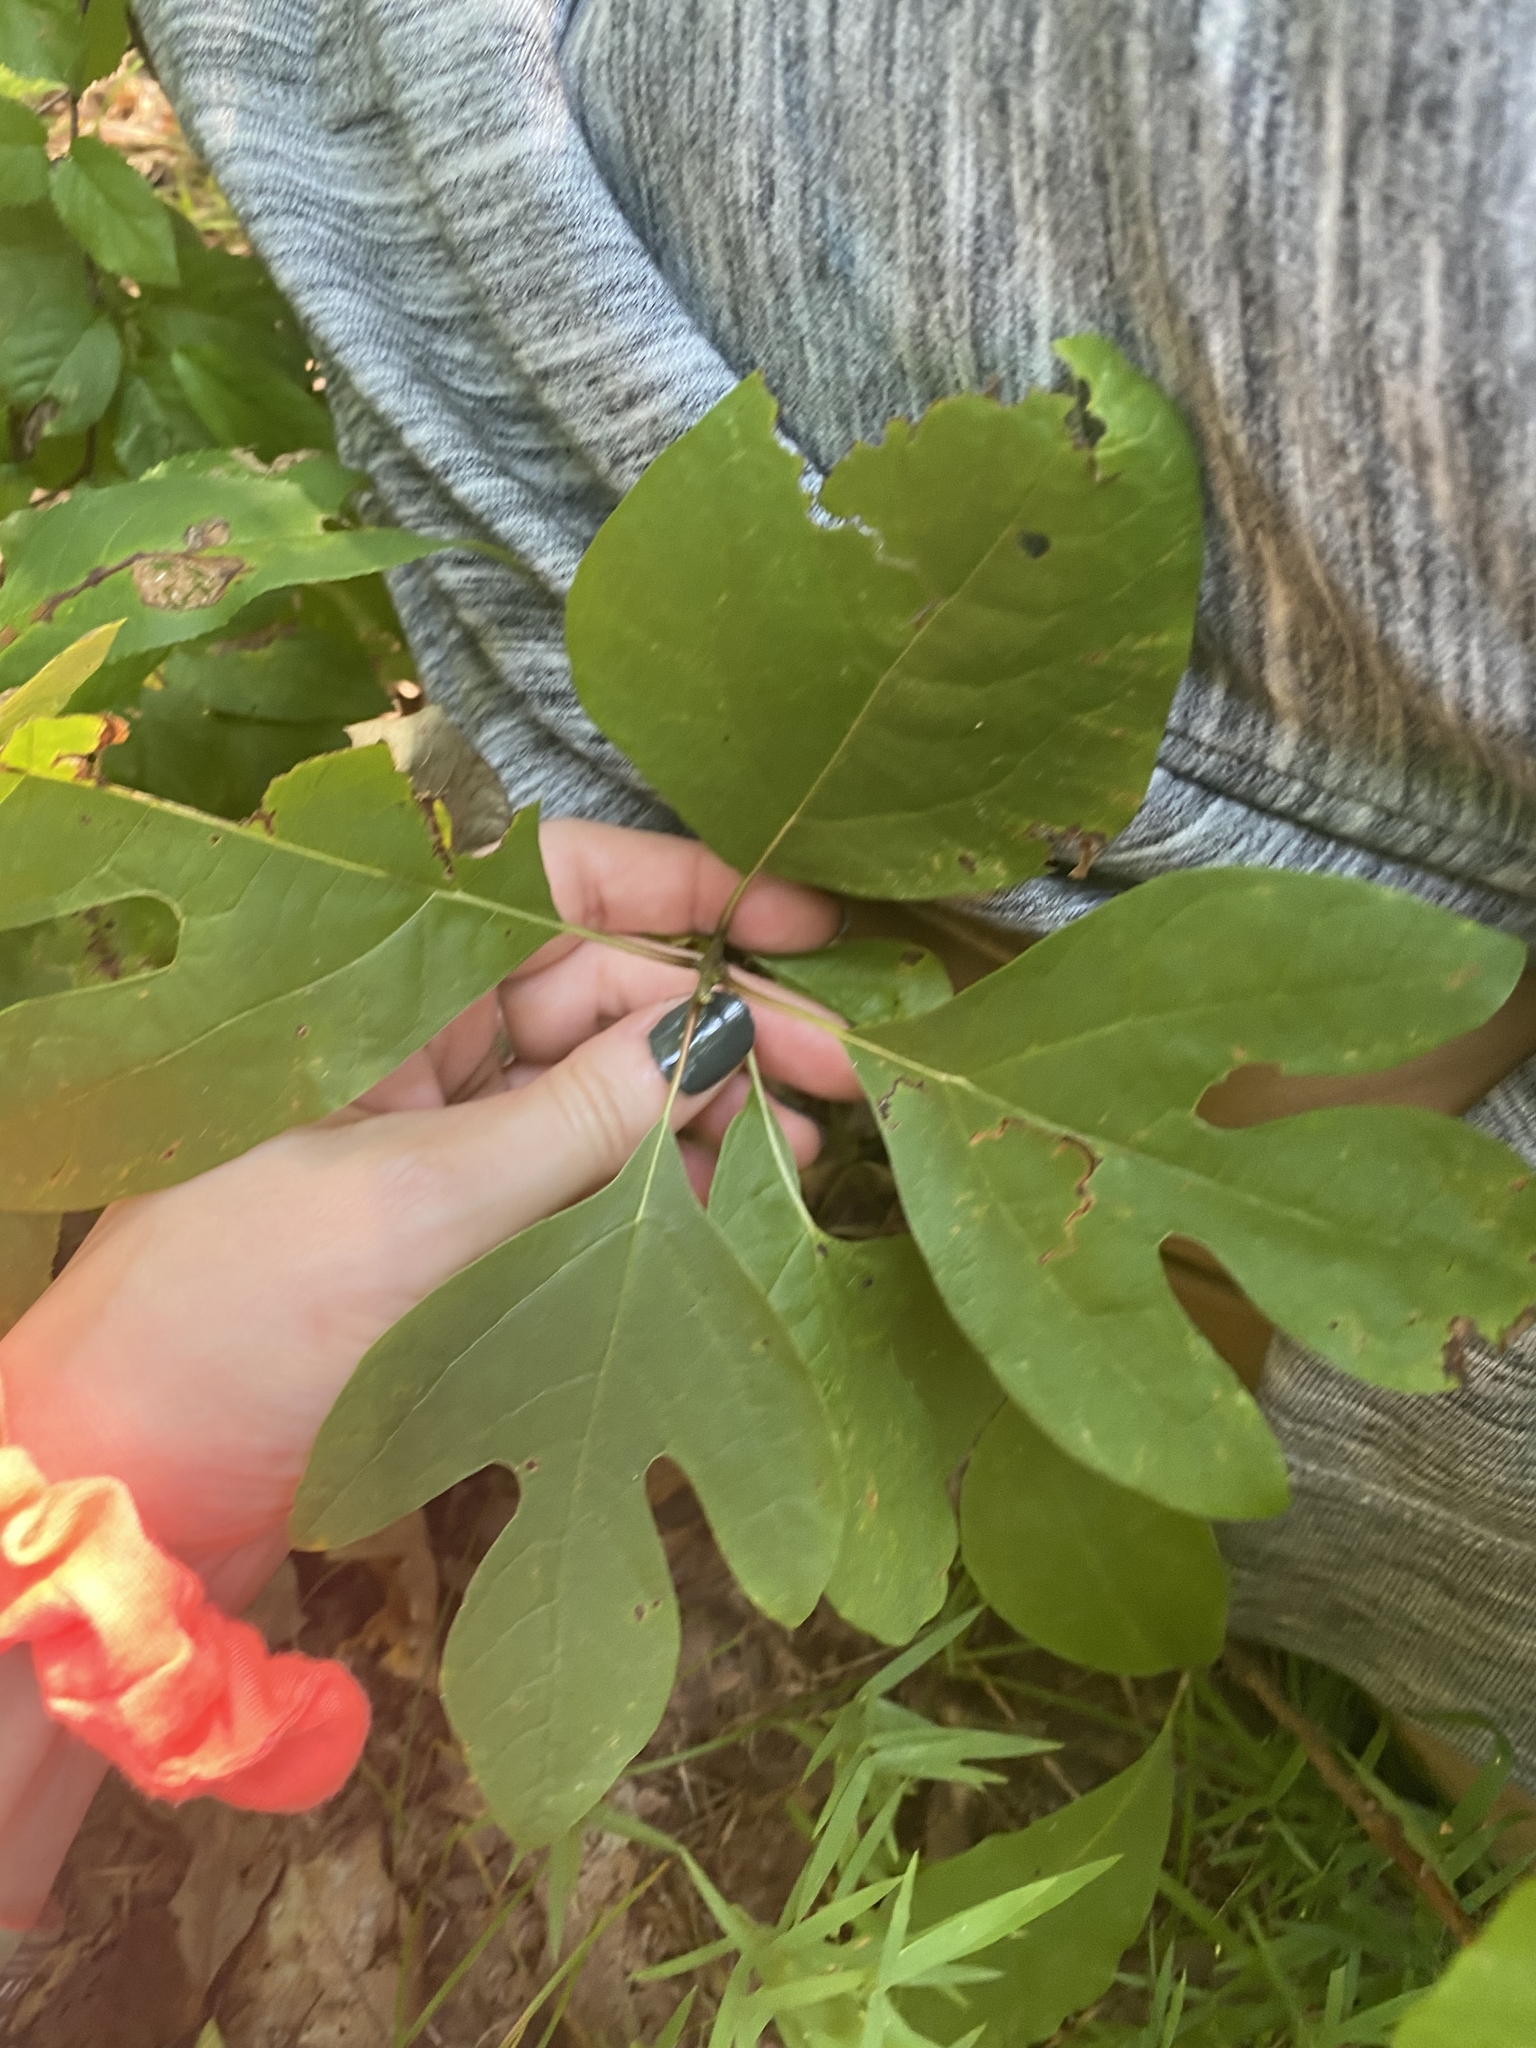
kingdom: Plantae
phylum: Tracheophyta
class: Magnoliopsida
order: Laurales
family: Lauraceae
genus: Sassafras
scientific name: Sassafras albidum
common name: Sassafras
